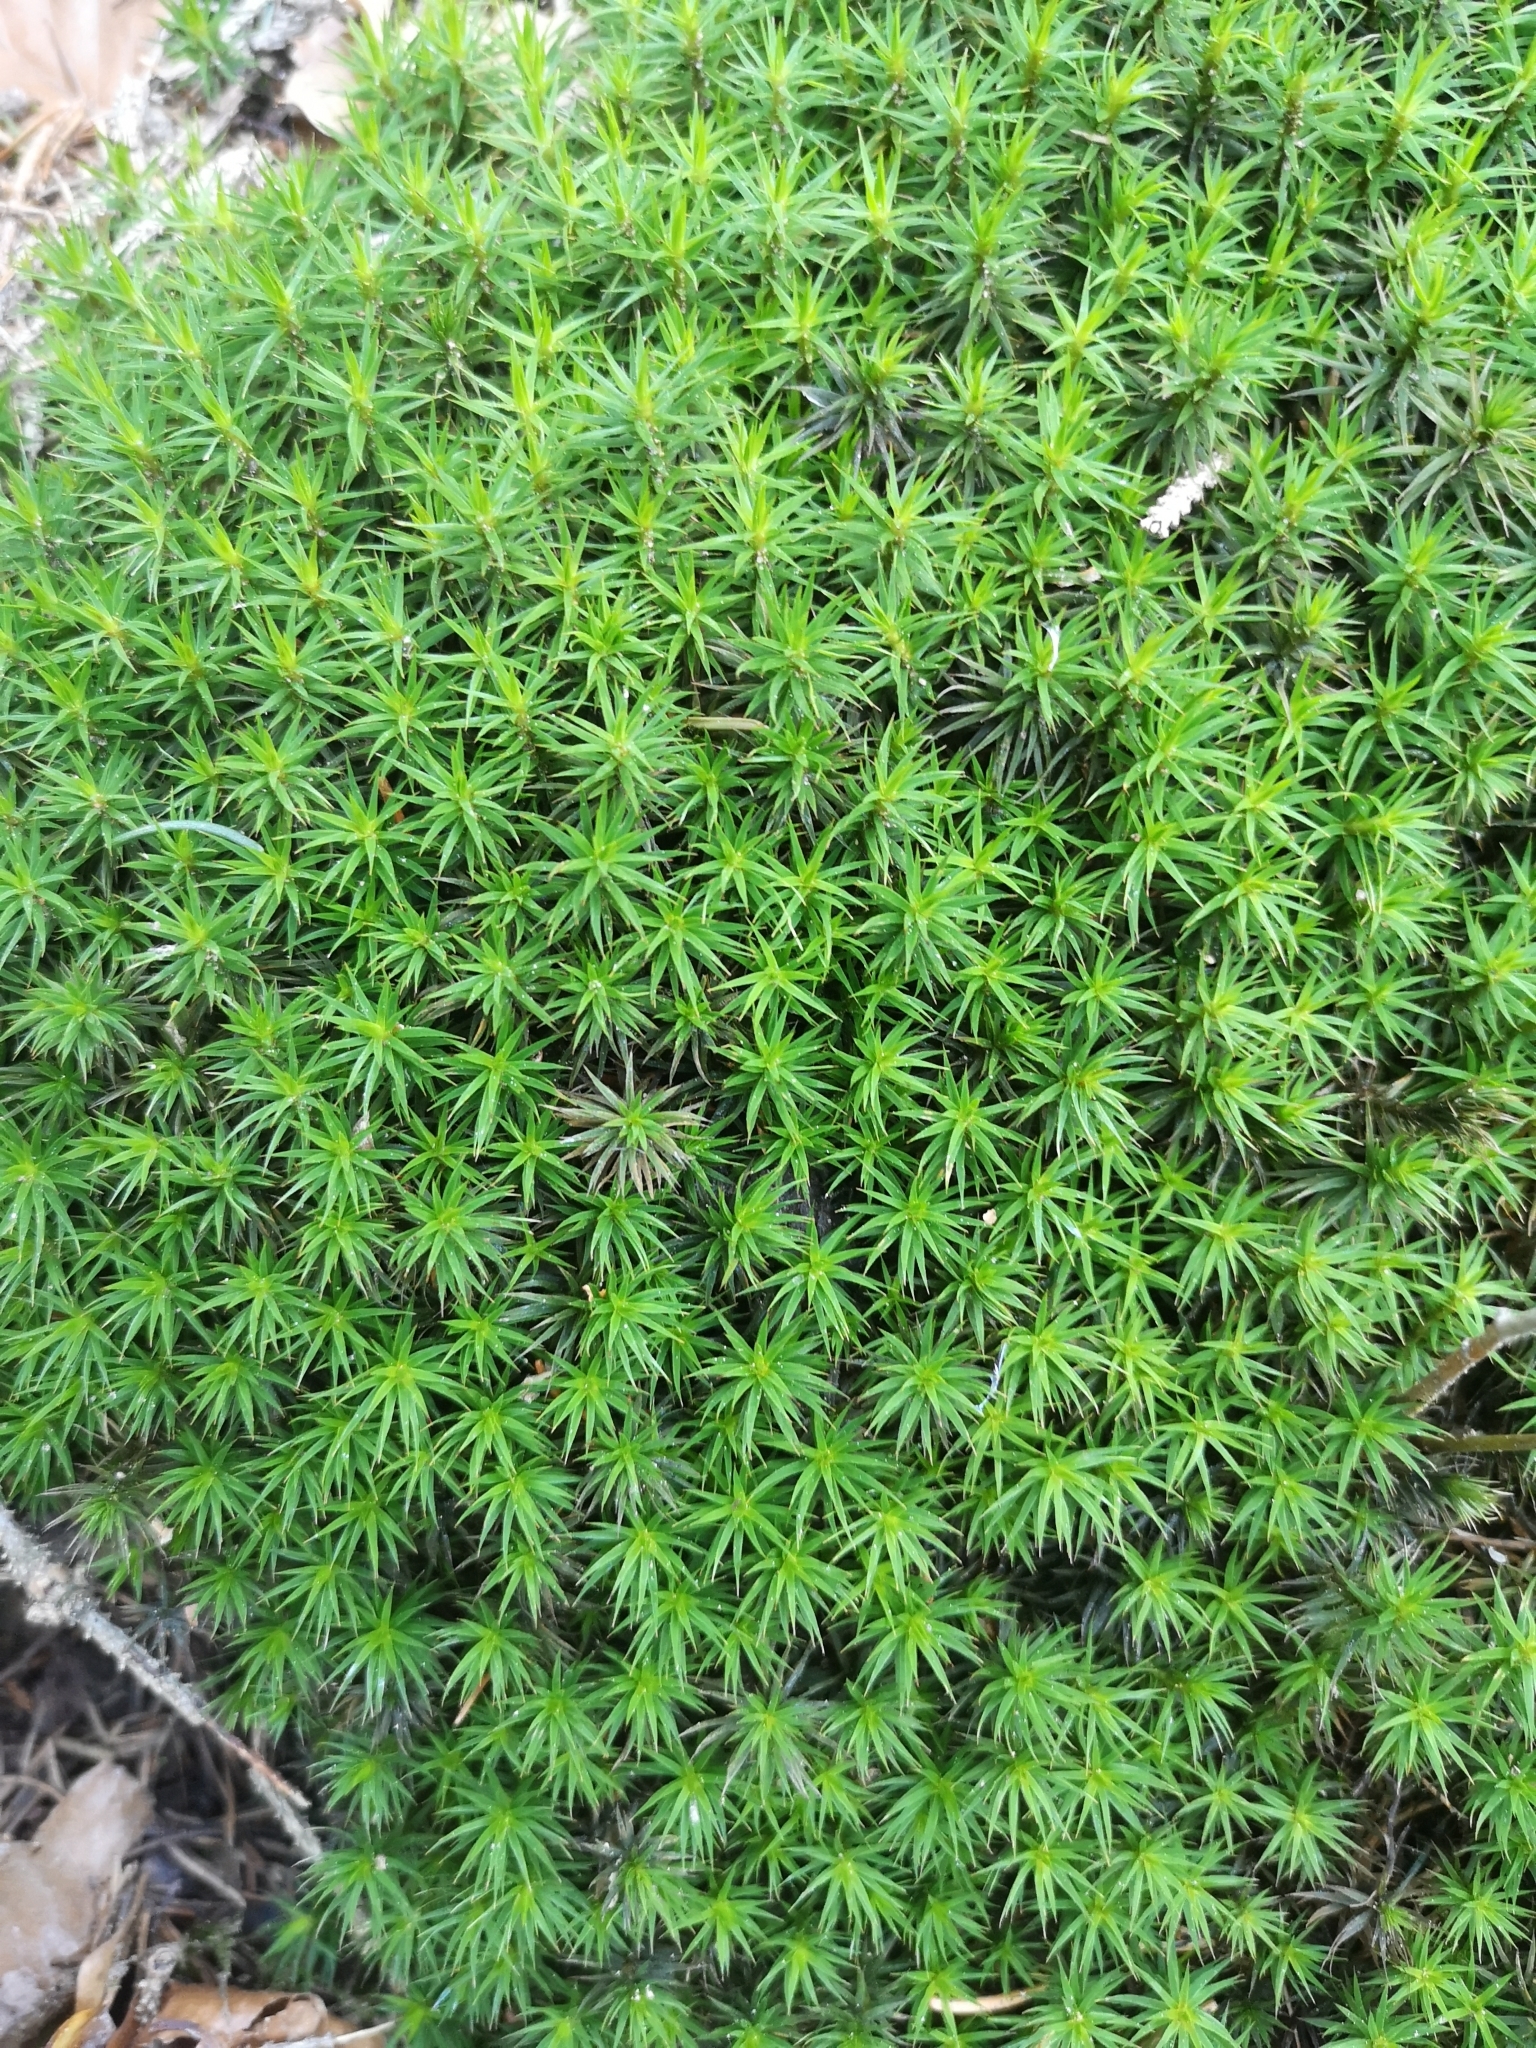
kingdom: Plantae
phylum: Bryophyta
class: Polytrichopsida
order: Polytrichales
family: Polytrichaceae
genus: Polytrichum
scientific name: Polytrichum formosum
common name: Bank haircap moss
